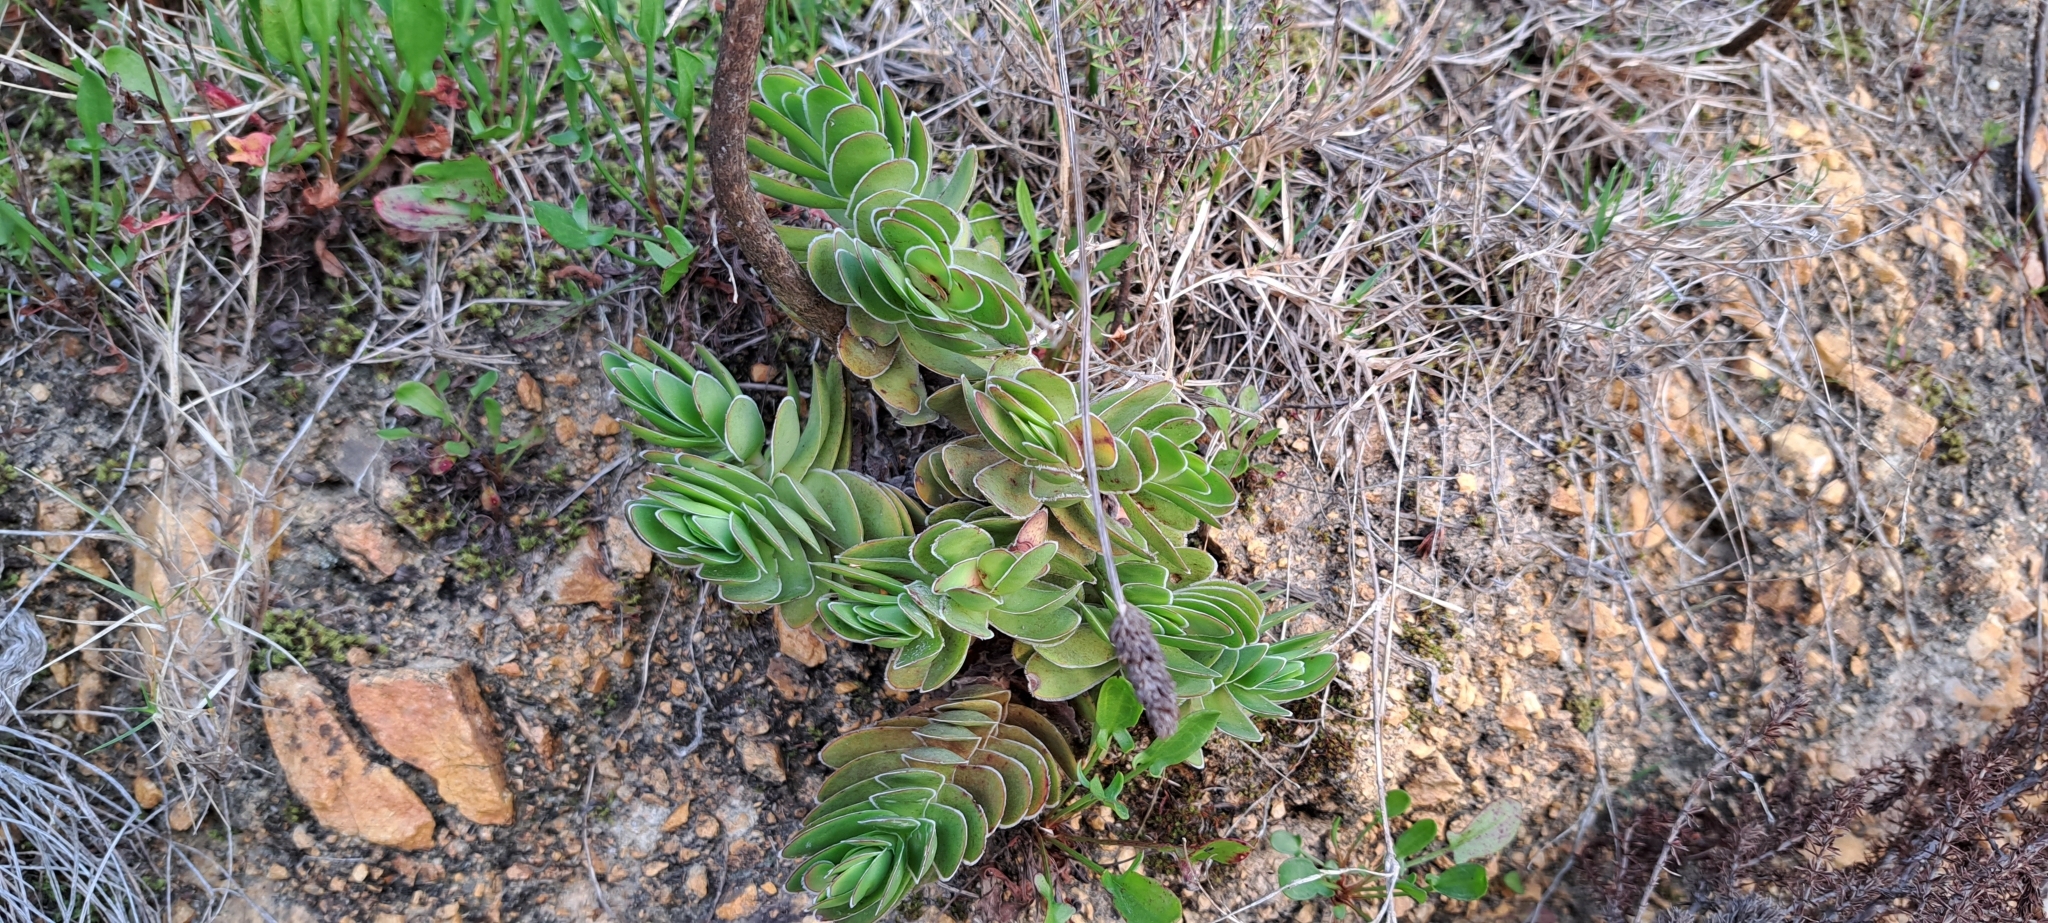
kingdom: Plantae
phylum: Tracheophyta
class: Magnoliopsida
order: Saxifragales
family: Crassulaceae
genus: Crassula
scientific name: Crassula ciliata
